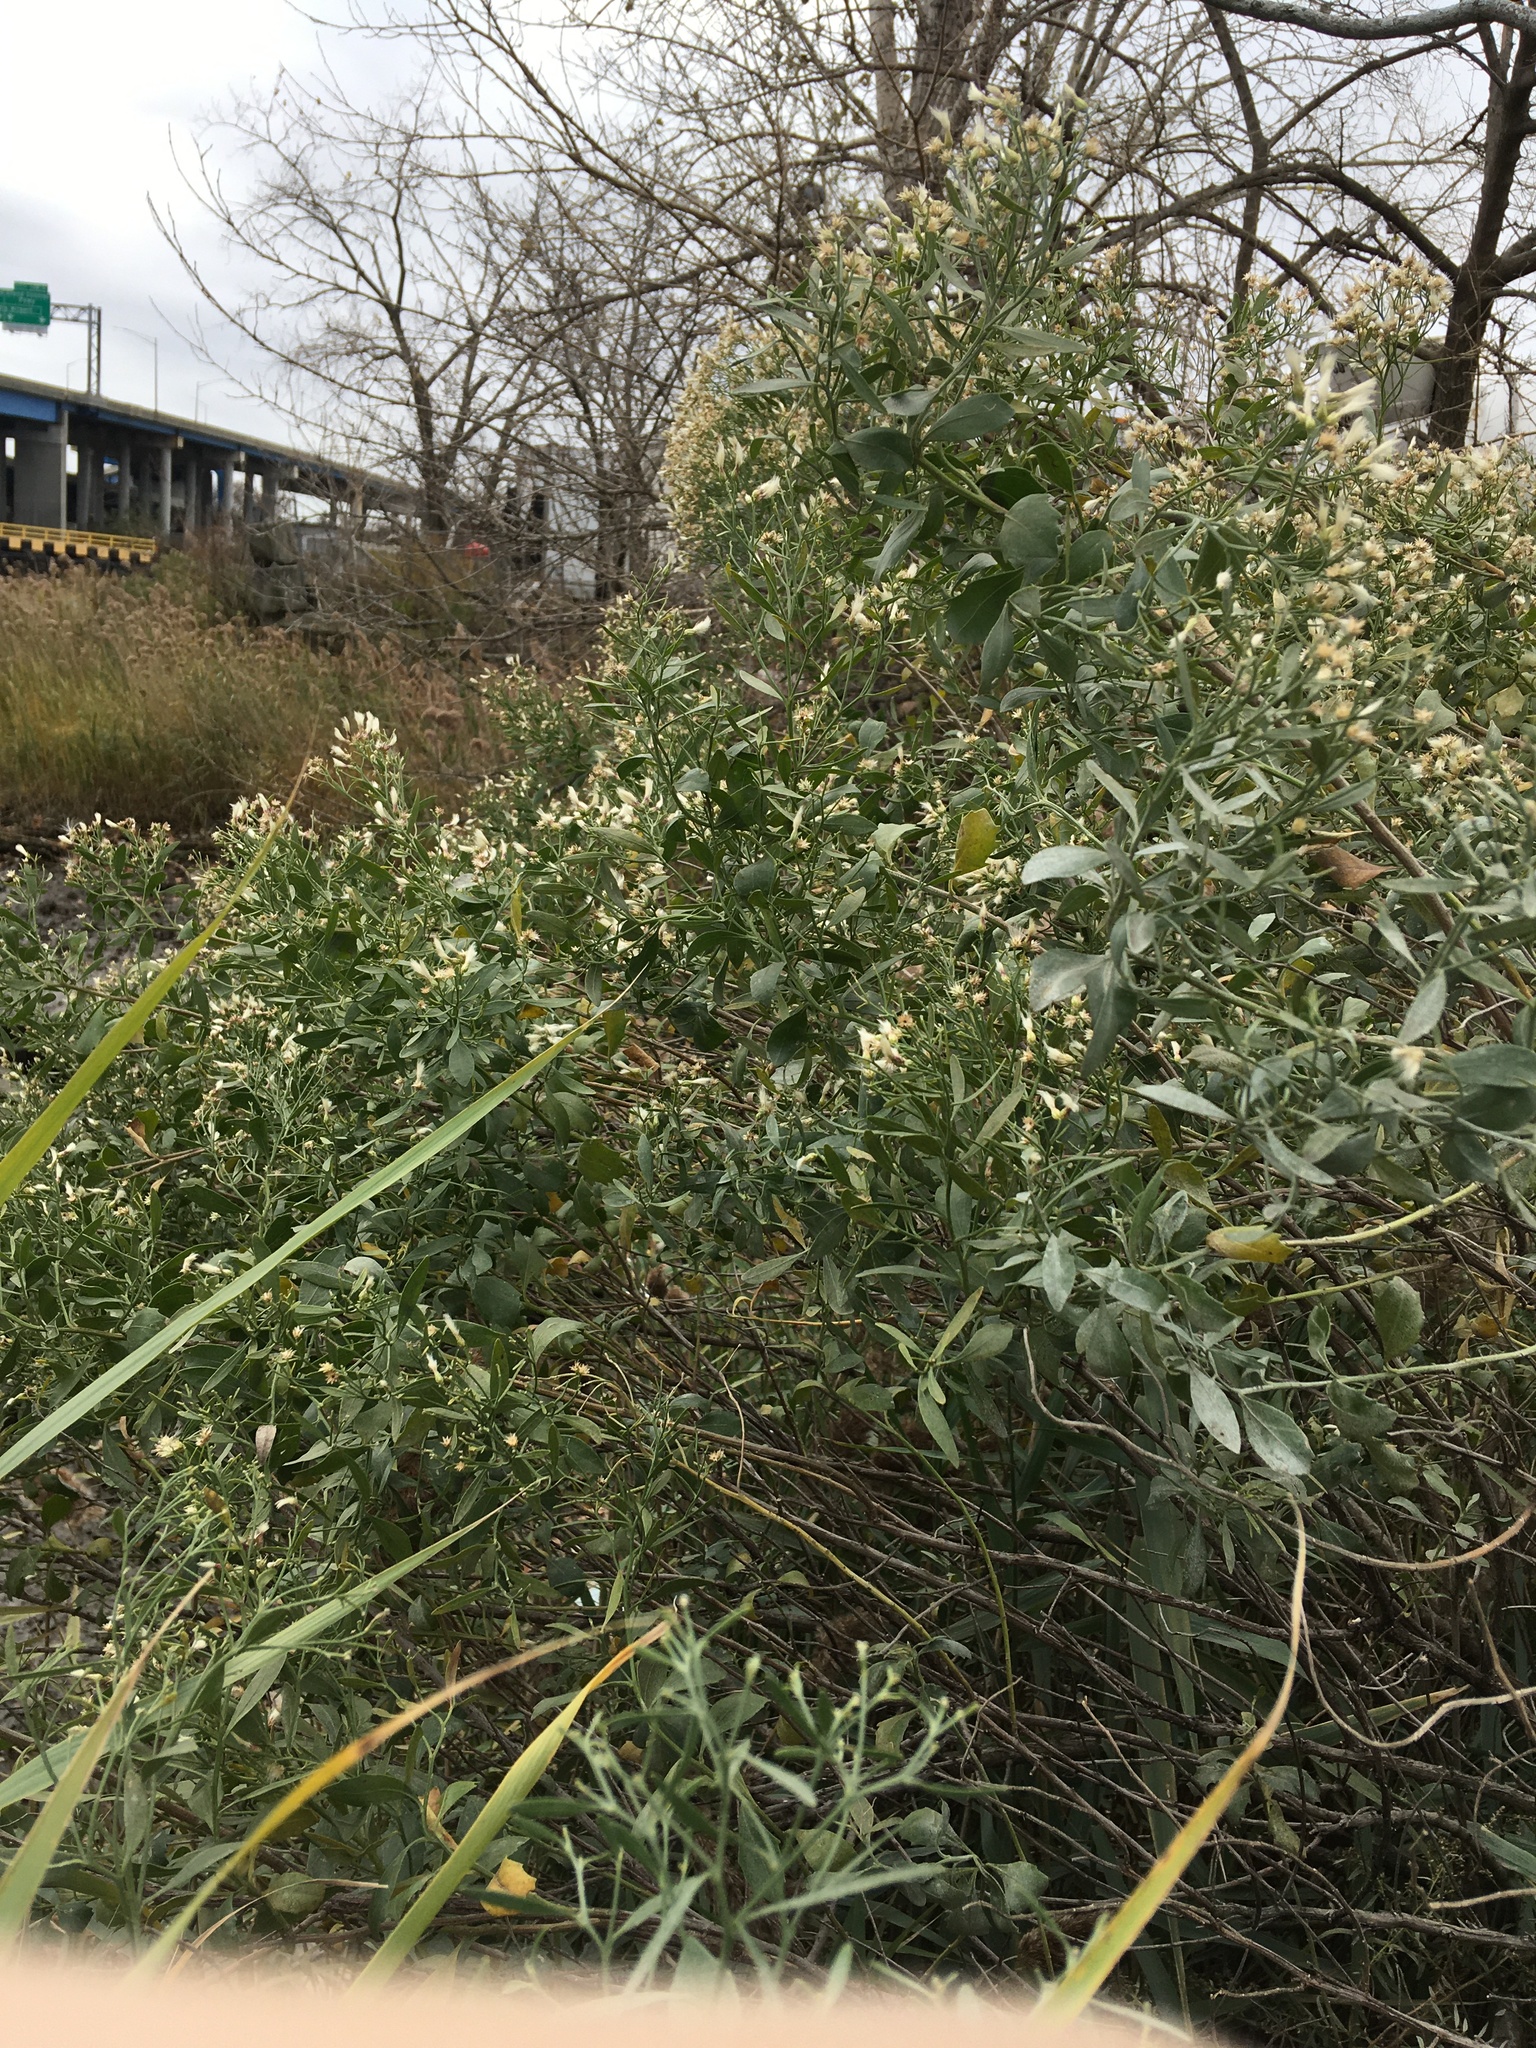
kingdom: Plantae
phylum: Tracheophyta
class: Magnoliopsida
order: Asterales
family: Asteraceae
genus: Baccharis
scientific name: Baccharis halimifolia
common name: Eastern baccharis
